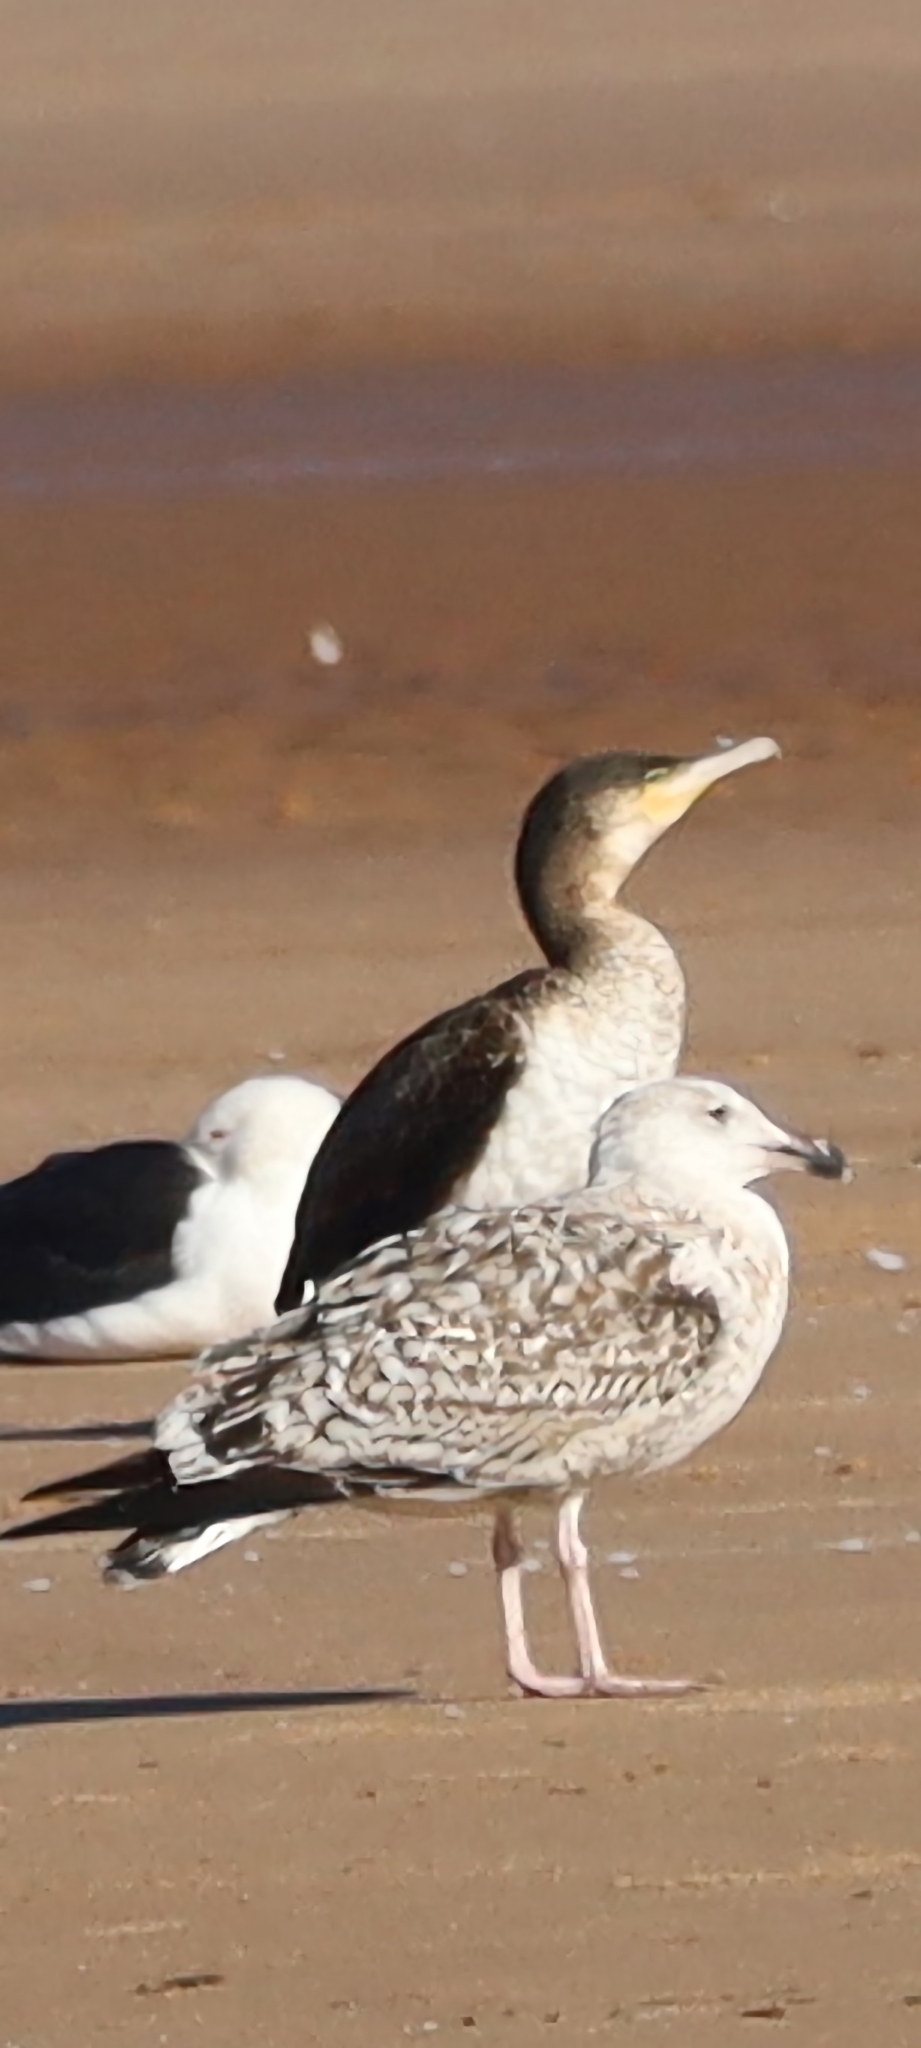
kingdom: Animalia
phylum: Chordata
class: Aves
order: Charadriiformes
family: Laridae
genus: Larus
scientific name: Larus marinus
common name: Great black-backed gull
